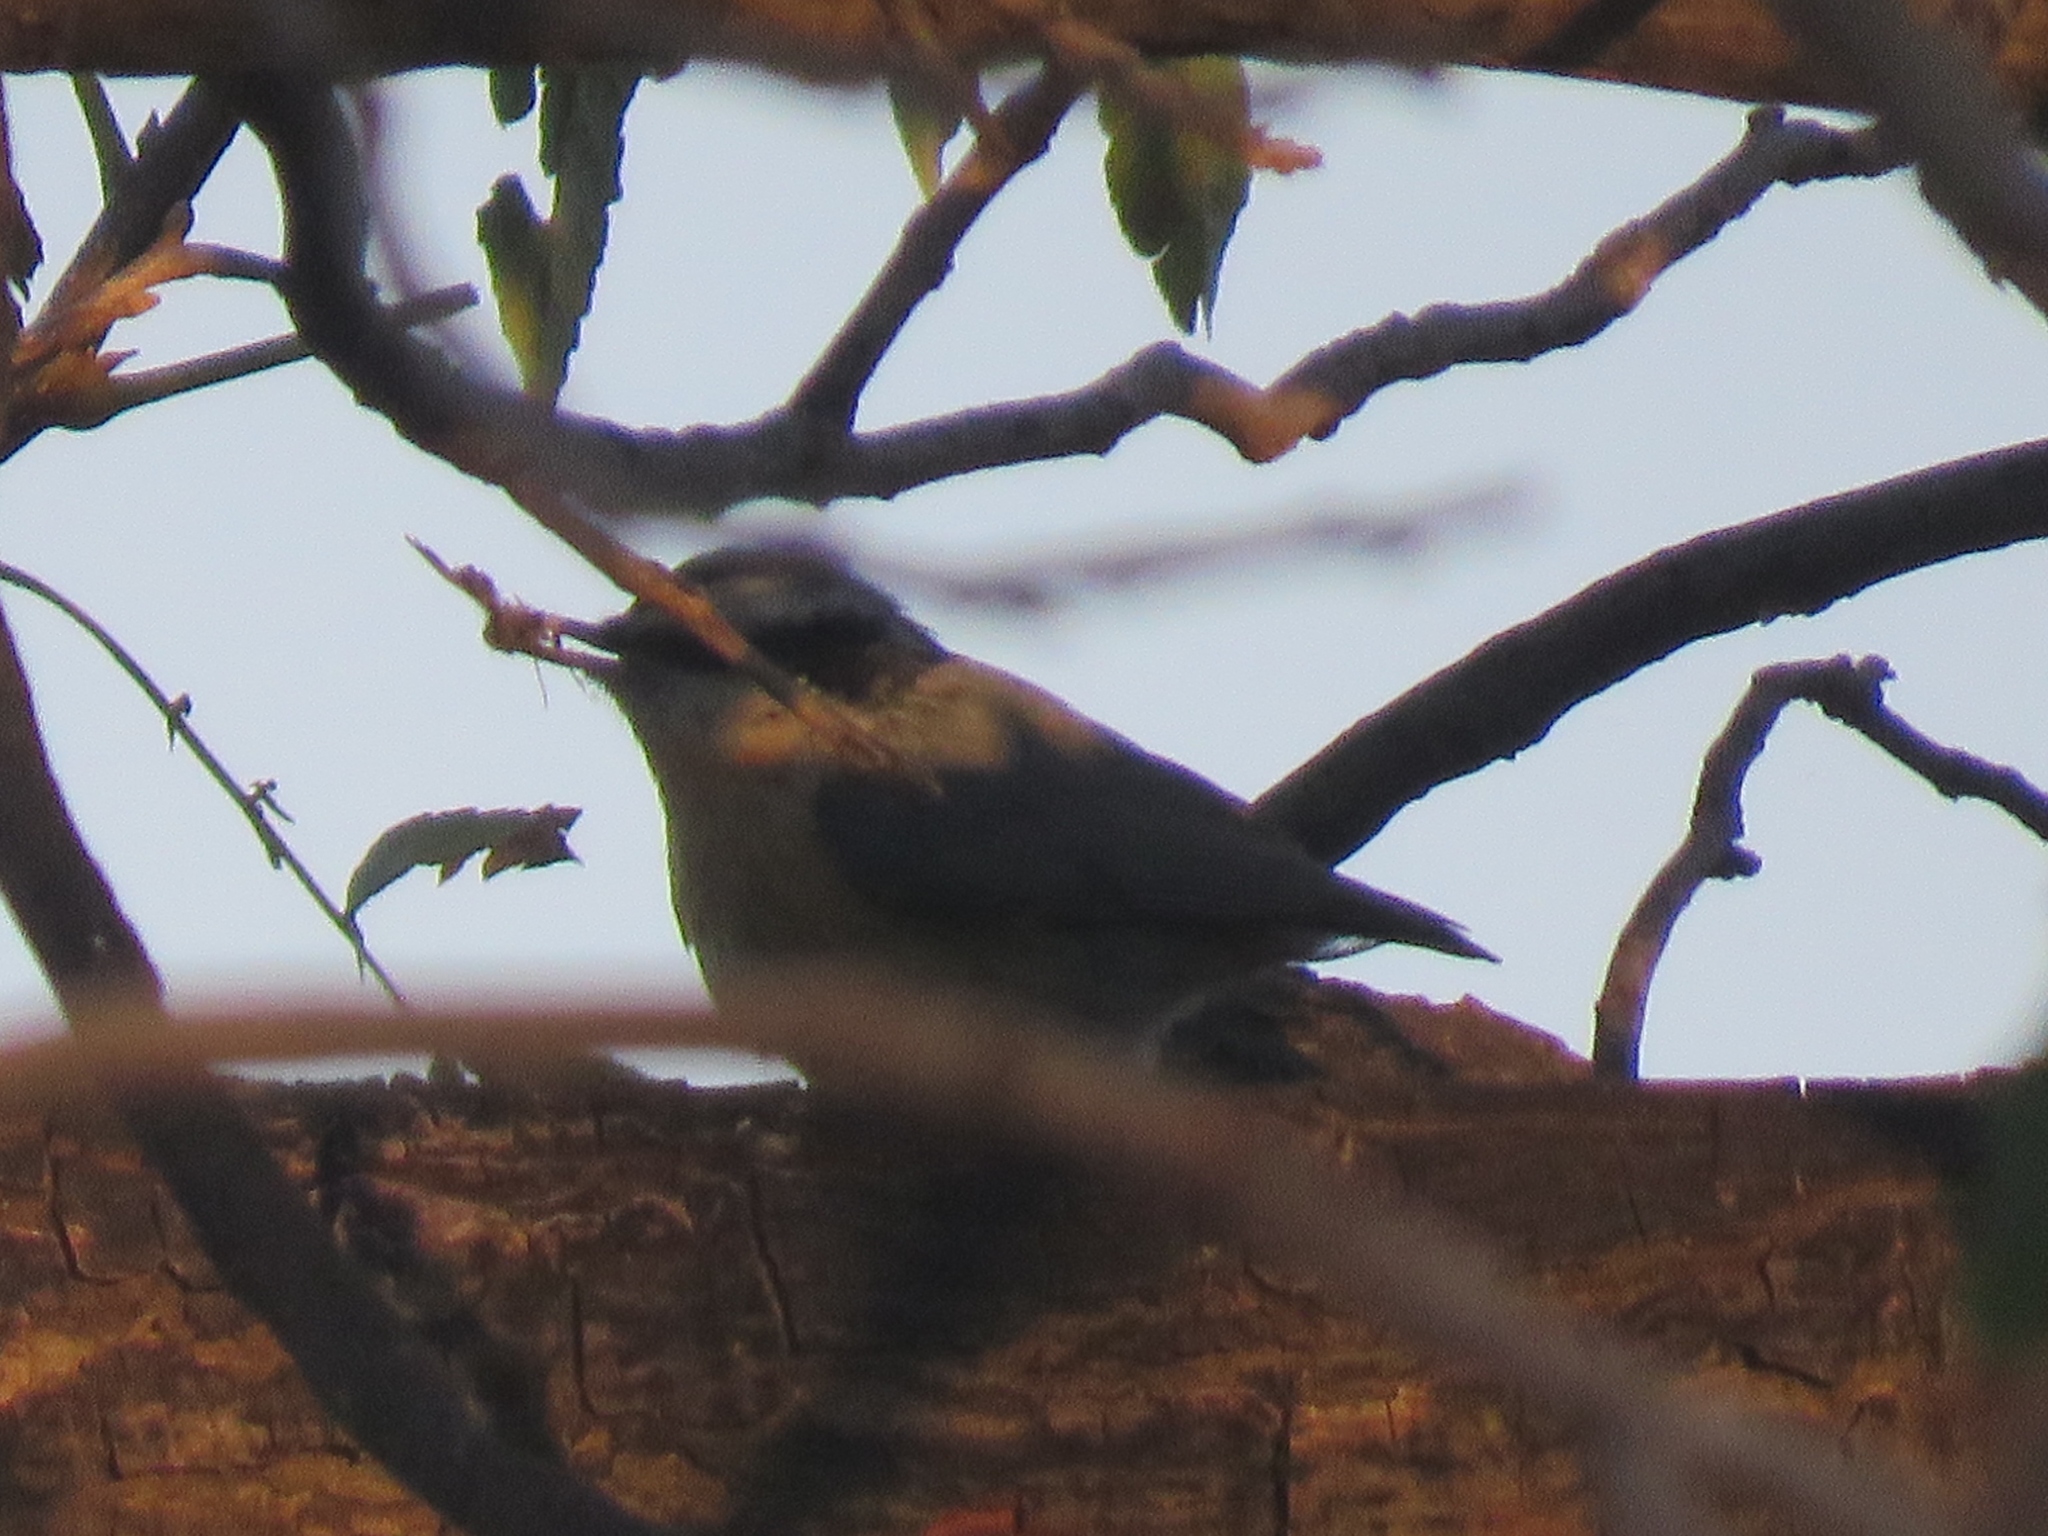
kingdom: Animalia
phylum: Chordata
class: Aves
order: Passeriformes
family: Sittidae
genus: Sitta
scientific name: Sitta canadensis
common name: Red-breasted nuthatch
